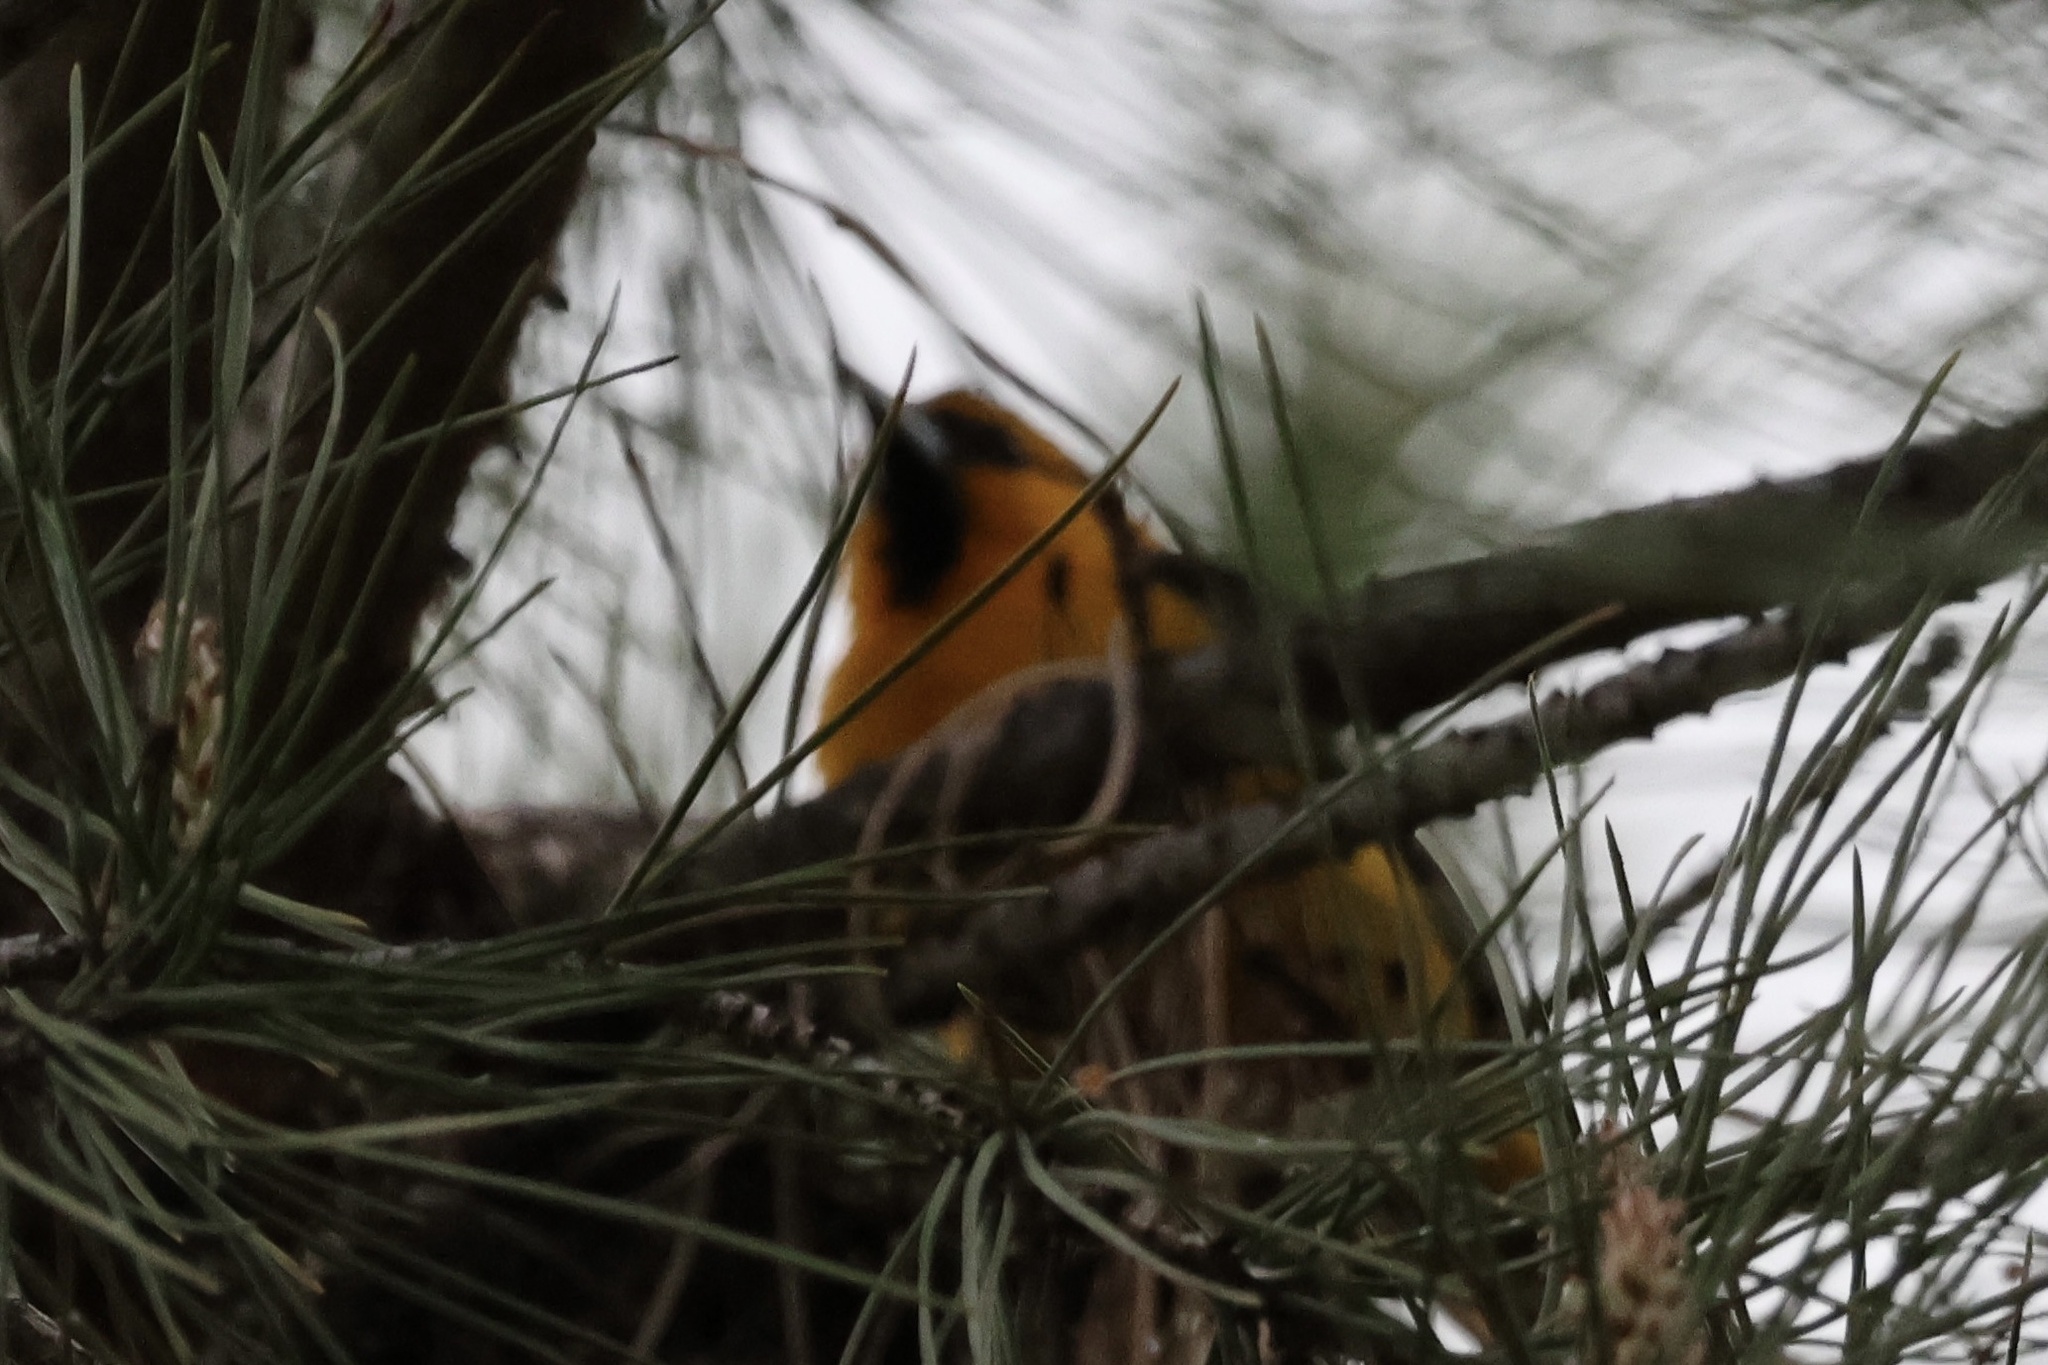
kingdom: Animalia
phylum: Chordata
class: Aves
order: Passeriformes
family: Icteridae
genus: Icterus
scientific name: Icterus bullockii
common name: Bullock's oriole
